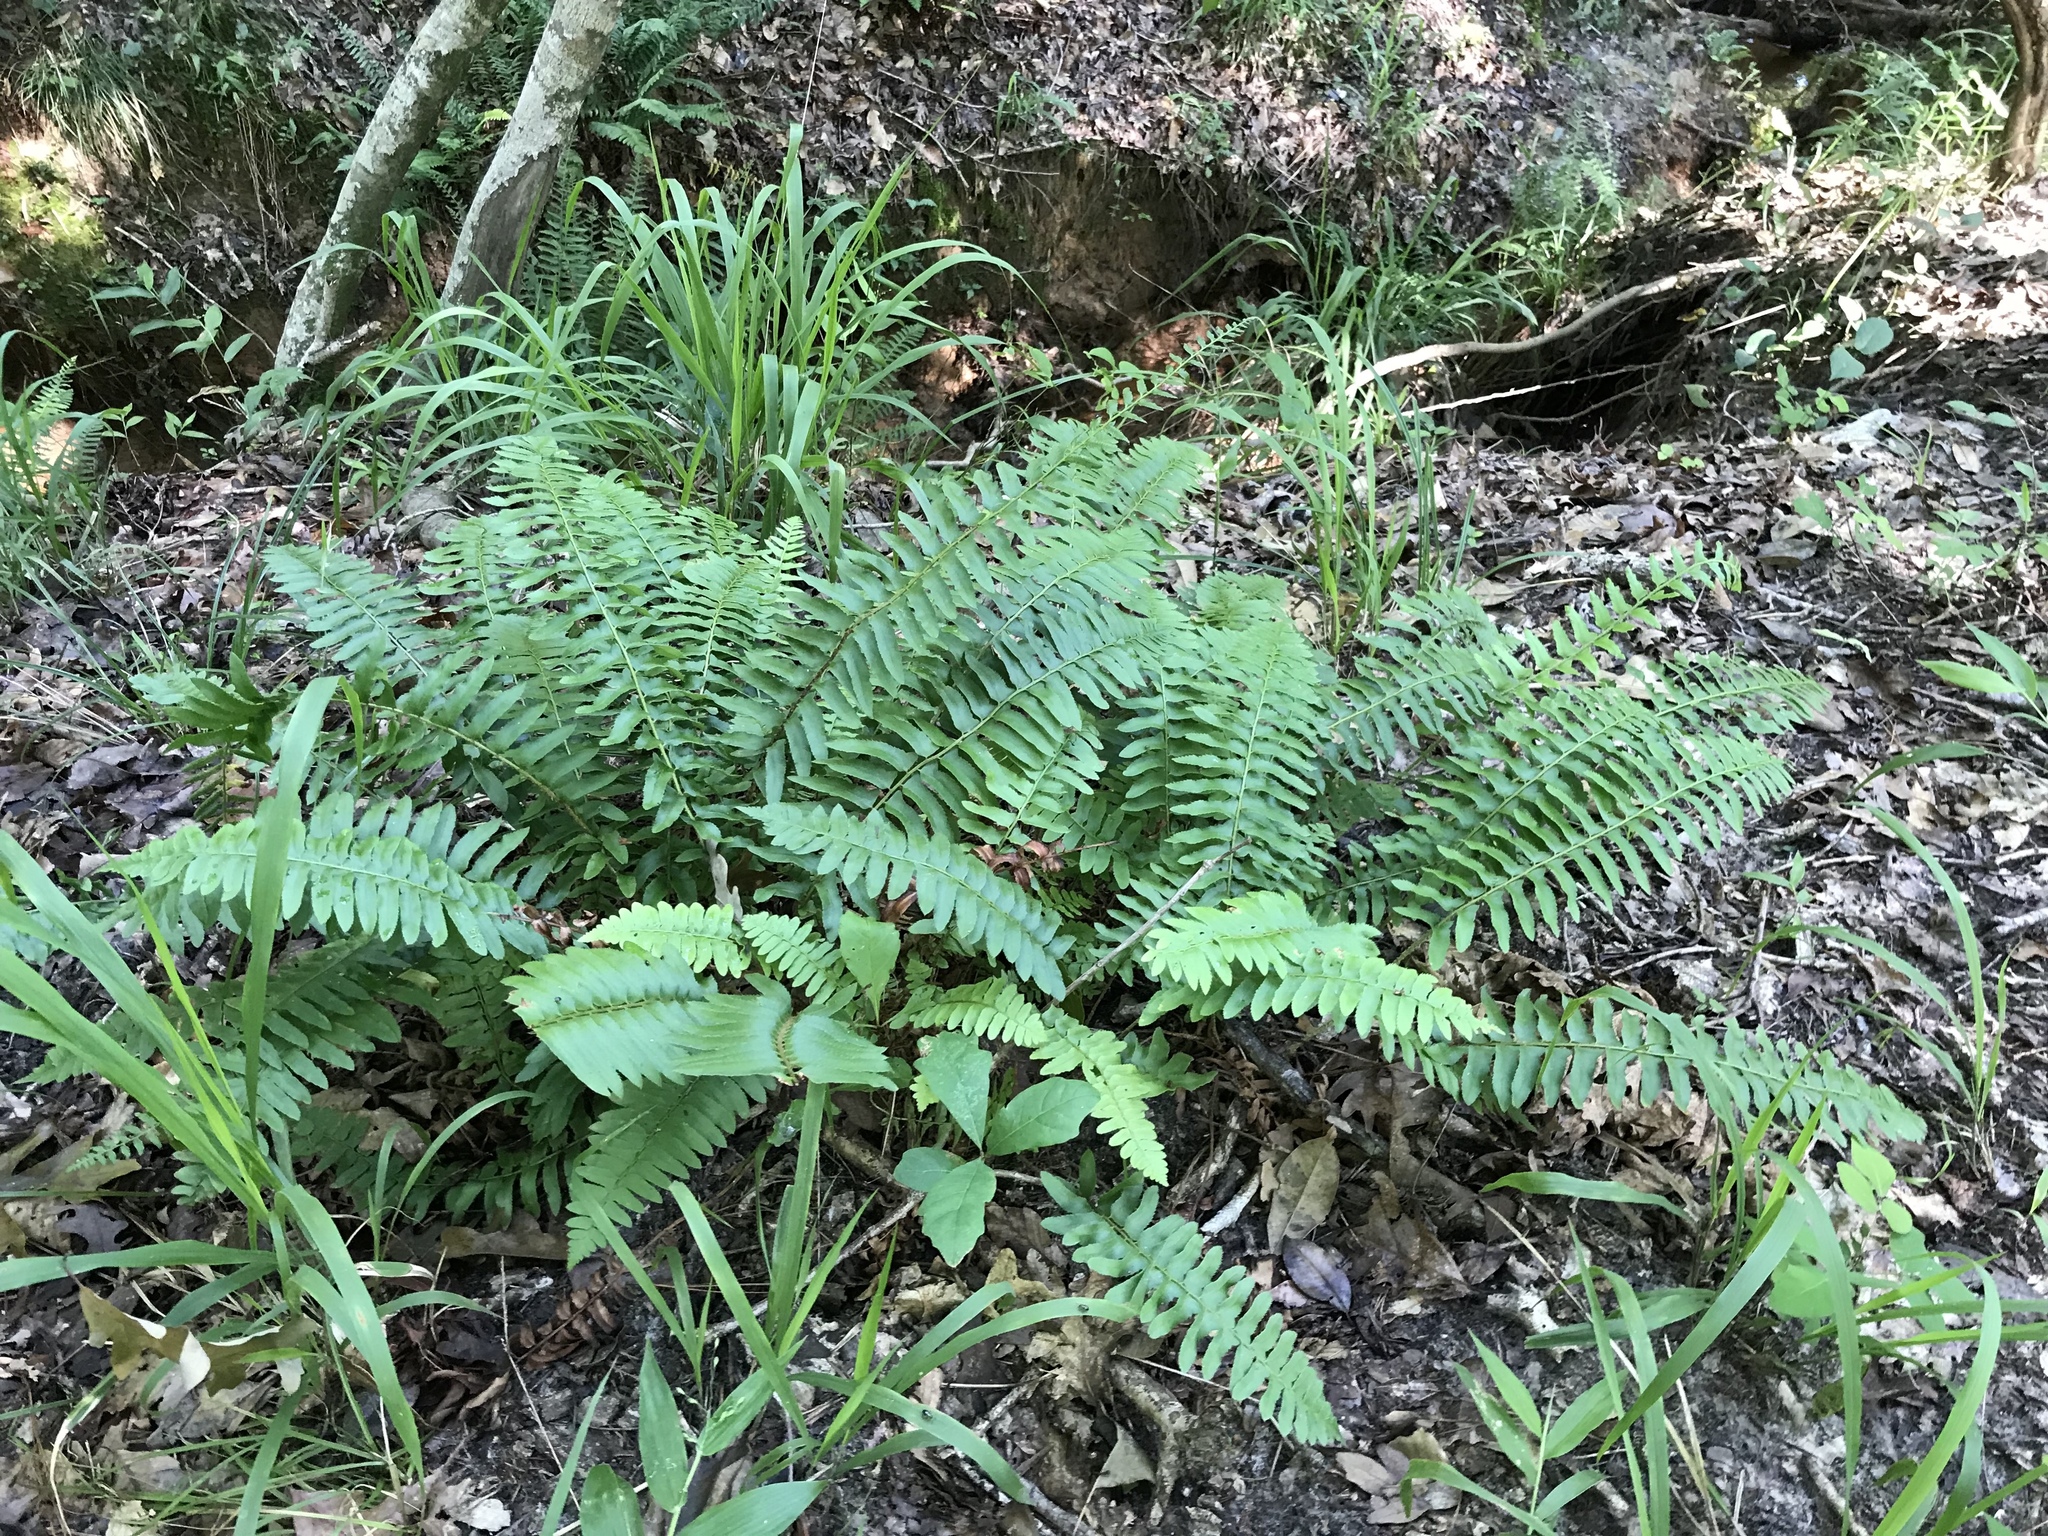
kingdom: Plantae
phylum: Tracheophyta
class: Polypodiopsida
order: Polypodiales
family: Dryopteridaceae
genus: Polystichum
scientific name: Polystichum acrostichoides
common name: Christmas fern
